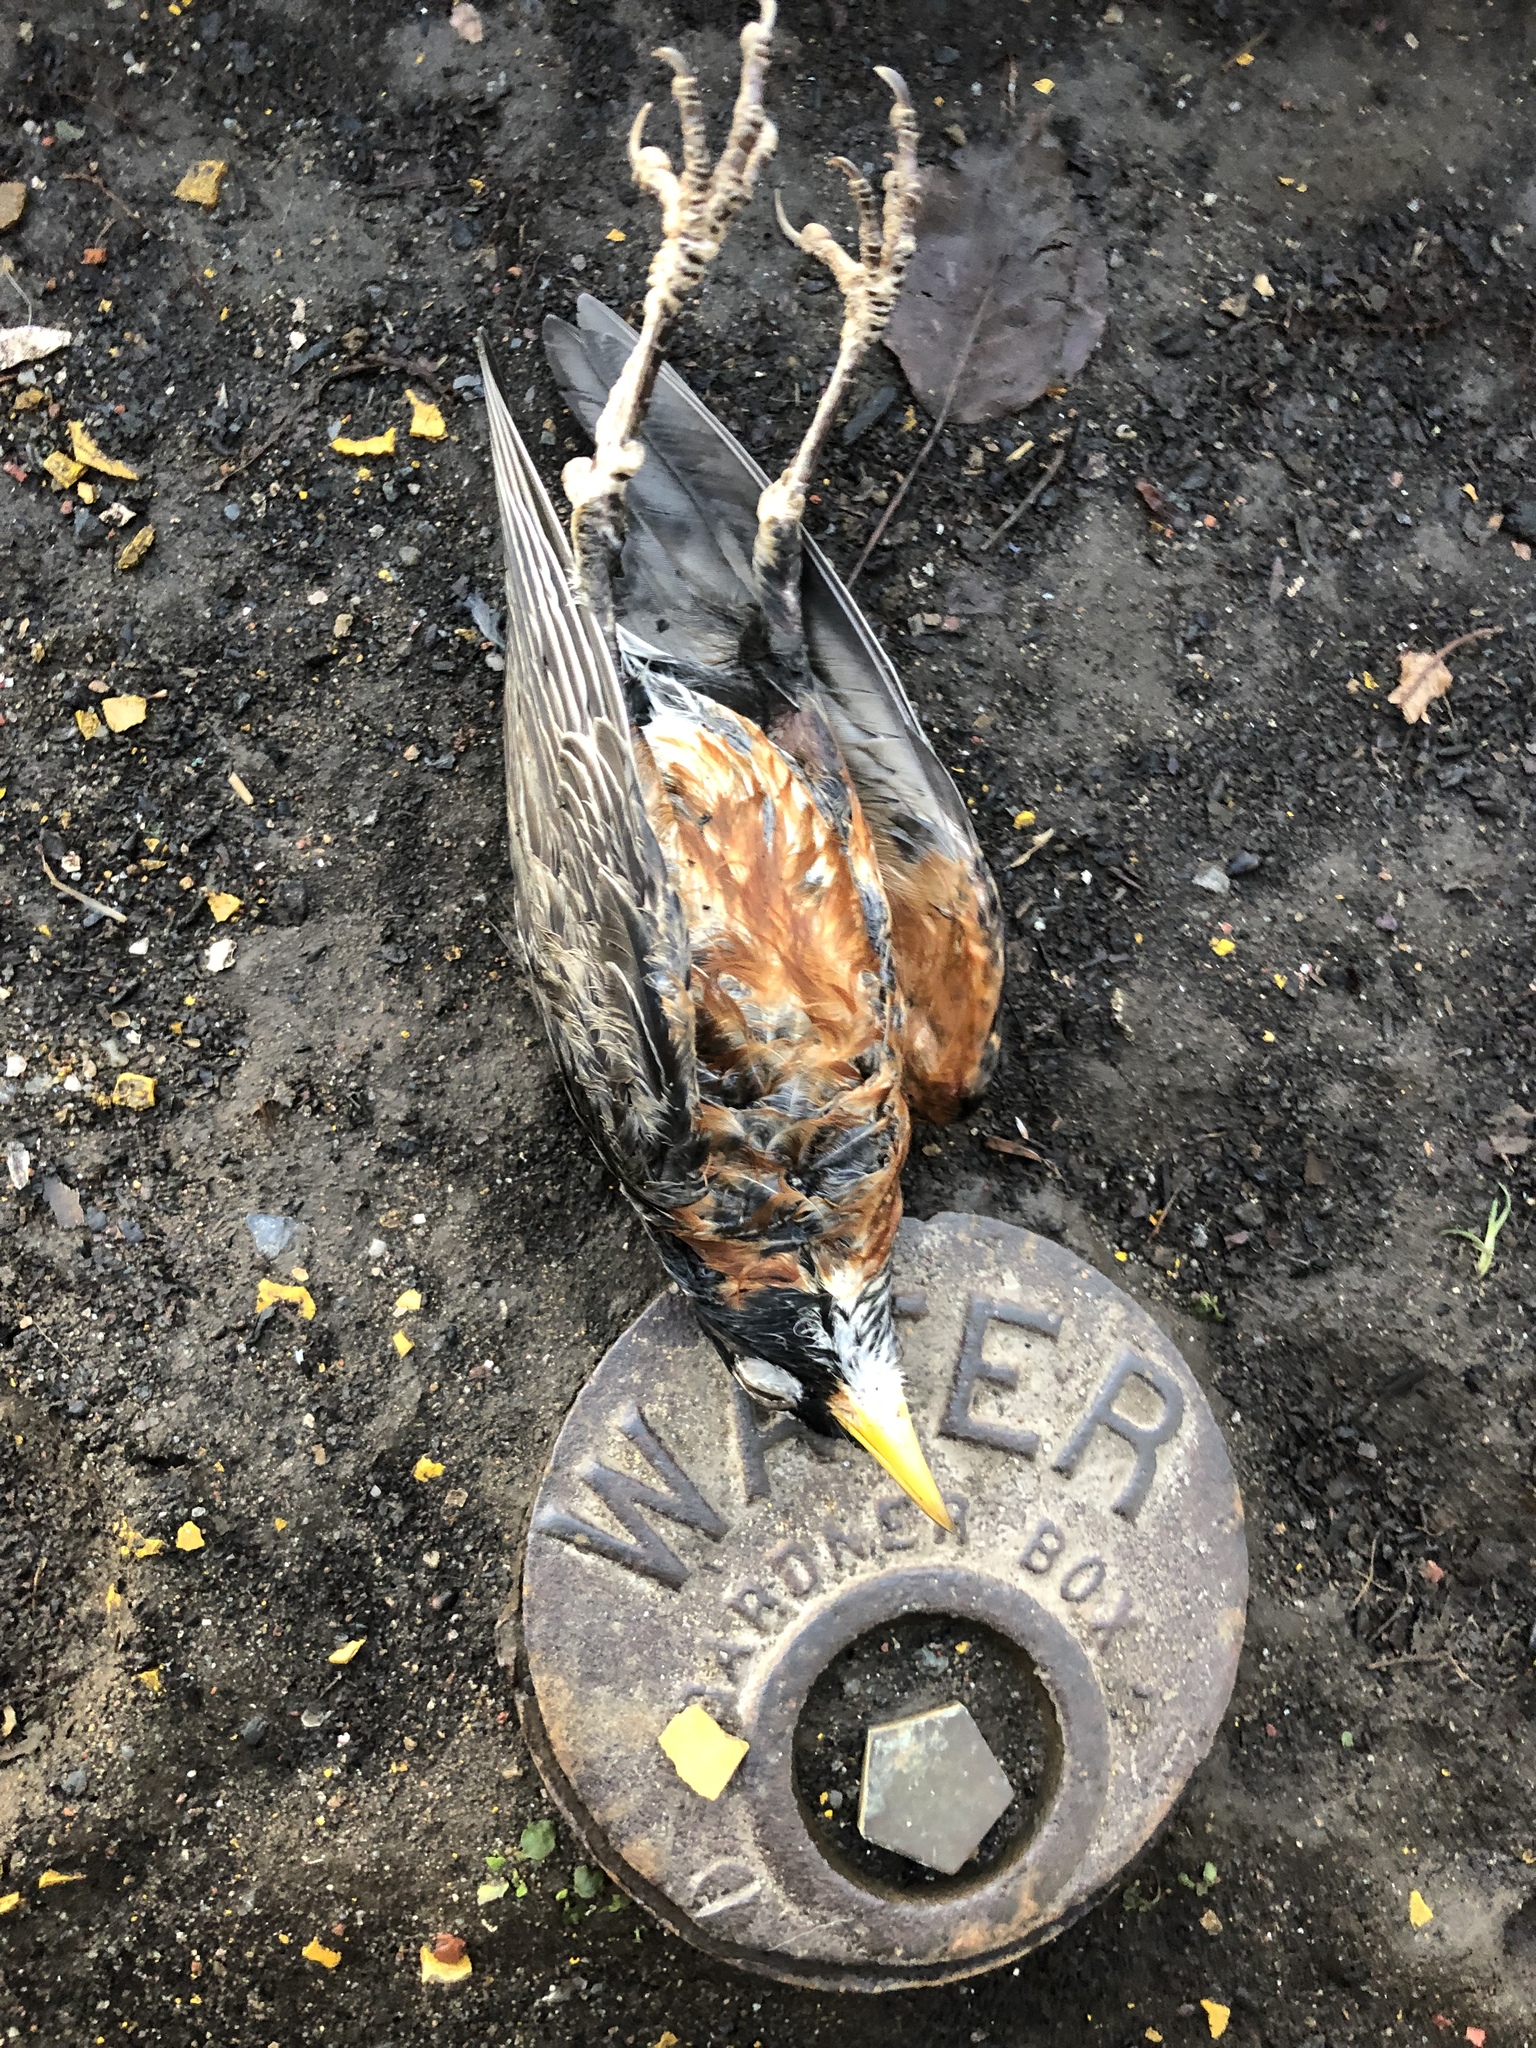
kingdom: Animalia
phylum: Chordata
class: Aves
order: Passeriformes
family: Turdidae
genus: Turdus
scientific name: Turdus migratorius
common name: American robin
